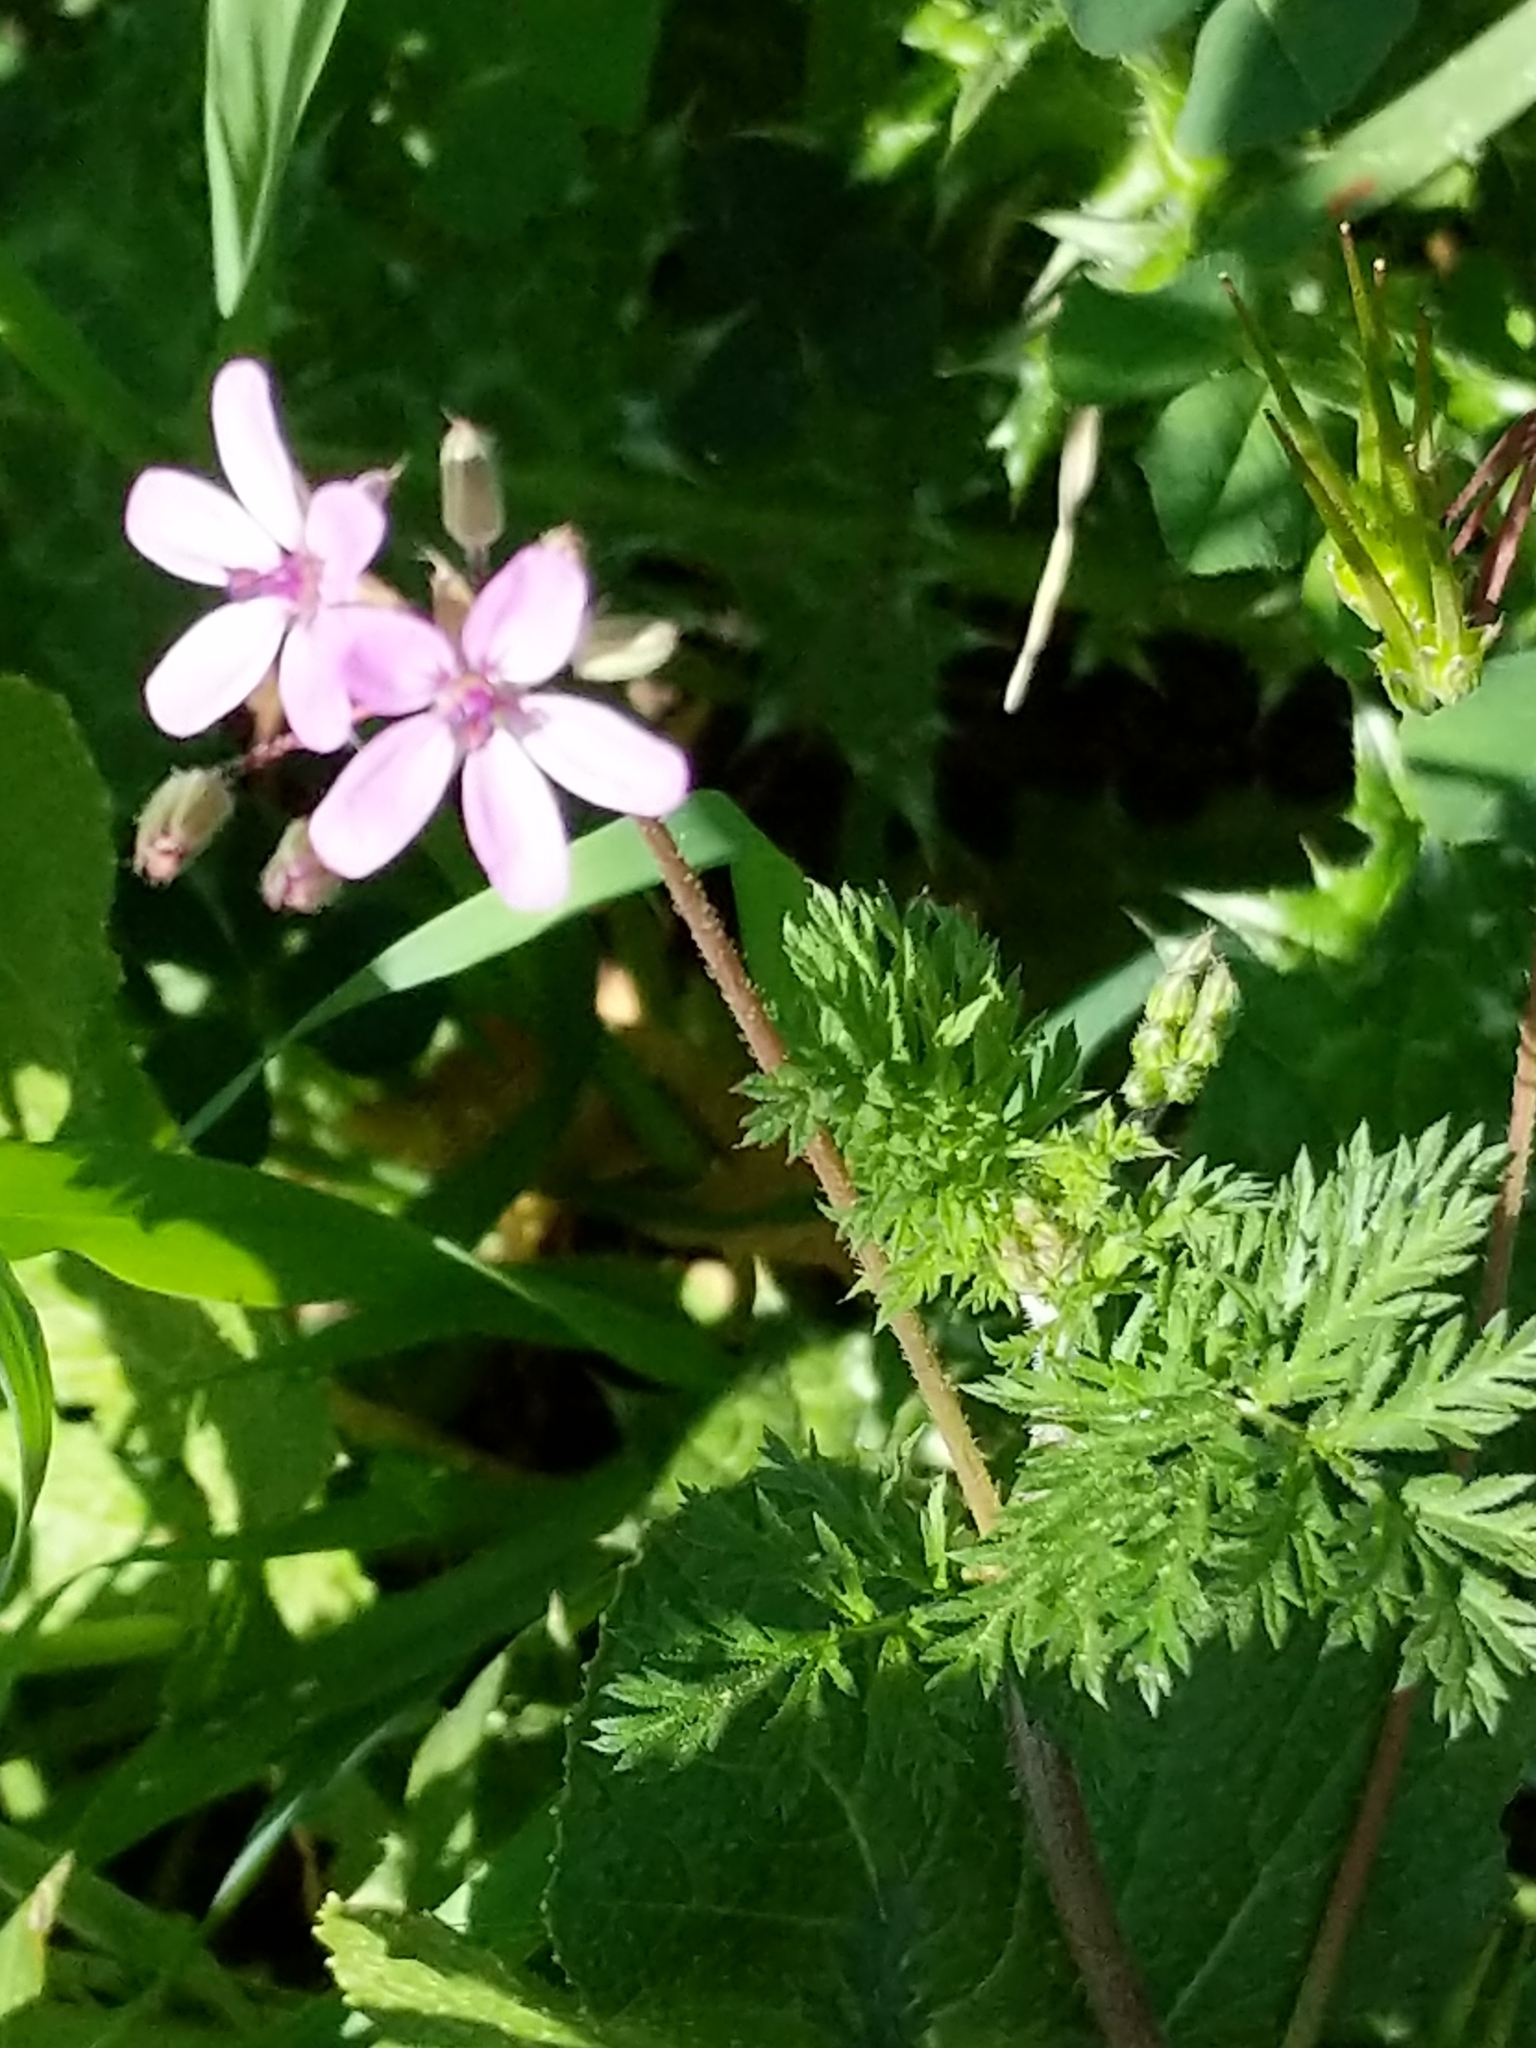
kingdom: Plantae
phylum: Tracheophyta
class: Magnoliopsida
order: Geraniales
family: Geraniaceae
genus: Erodium
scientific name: Erodium cicutarium
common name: Common stork's-bill
